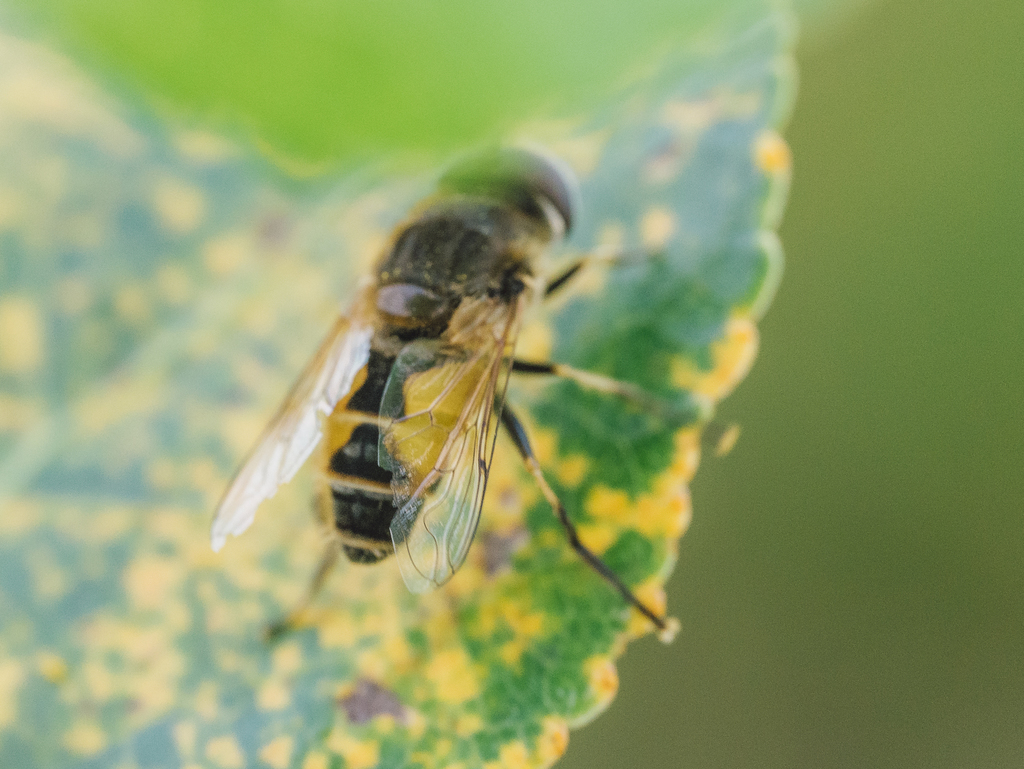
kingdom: Animalia
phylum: Arthropoda
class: Insecta
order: Diptera
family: Syrphidae
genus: Eristalis
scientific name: Eristalis arbustorum
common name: Hover fly
